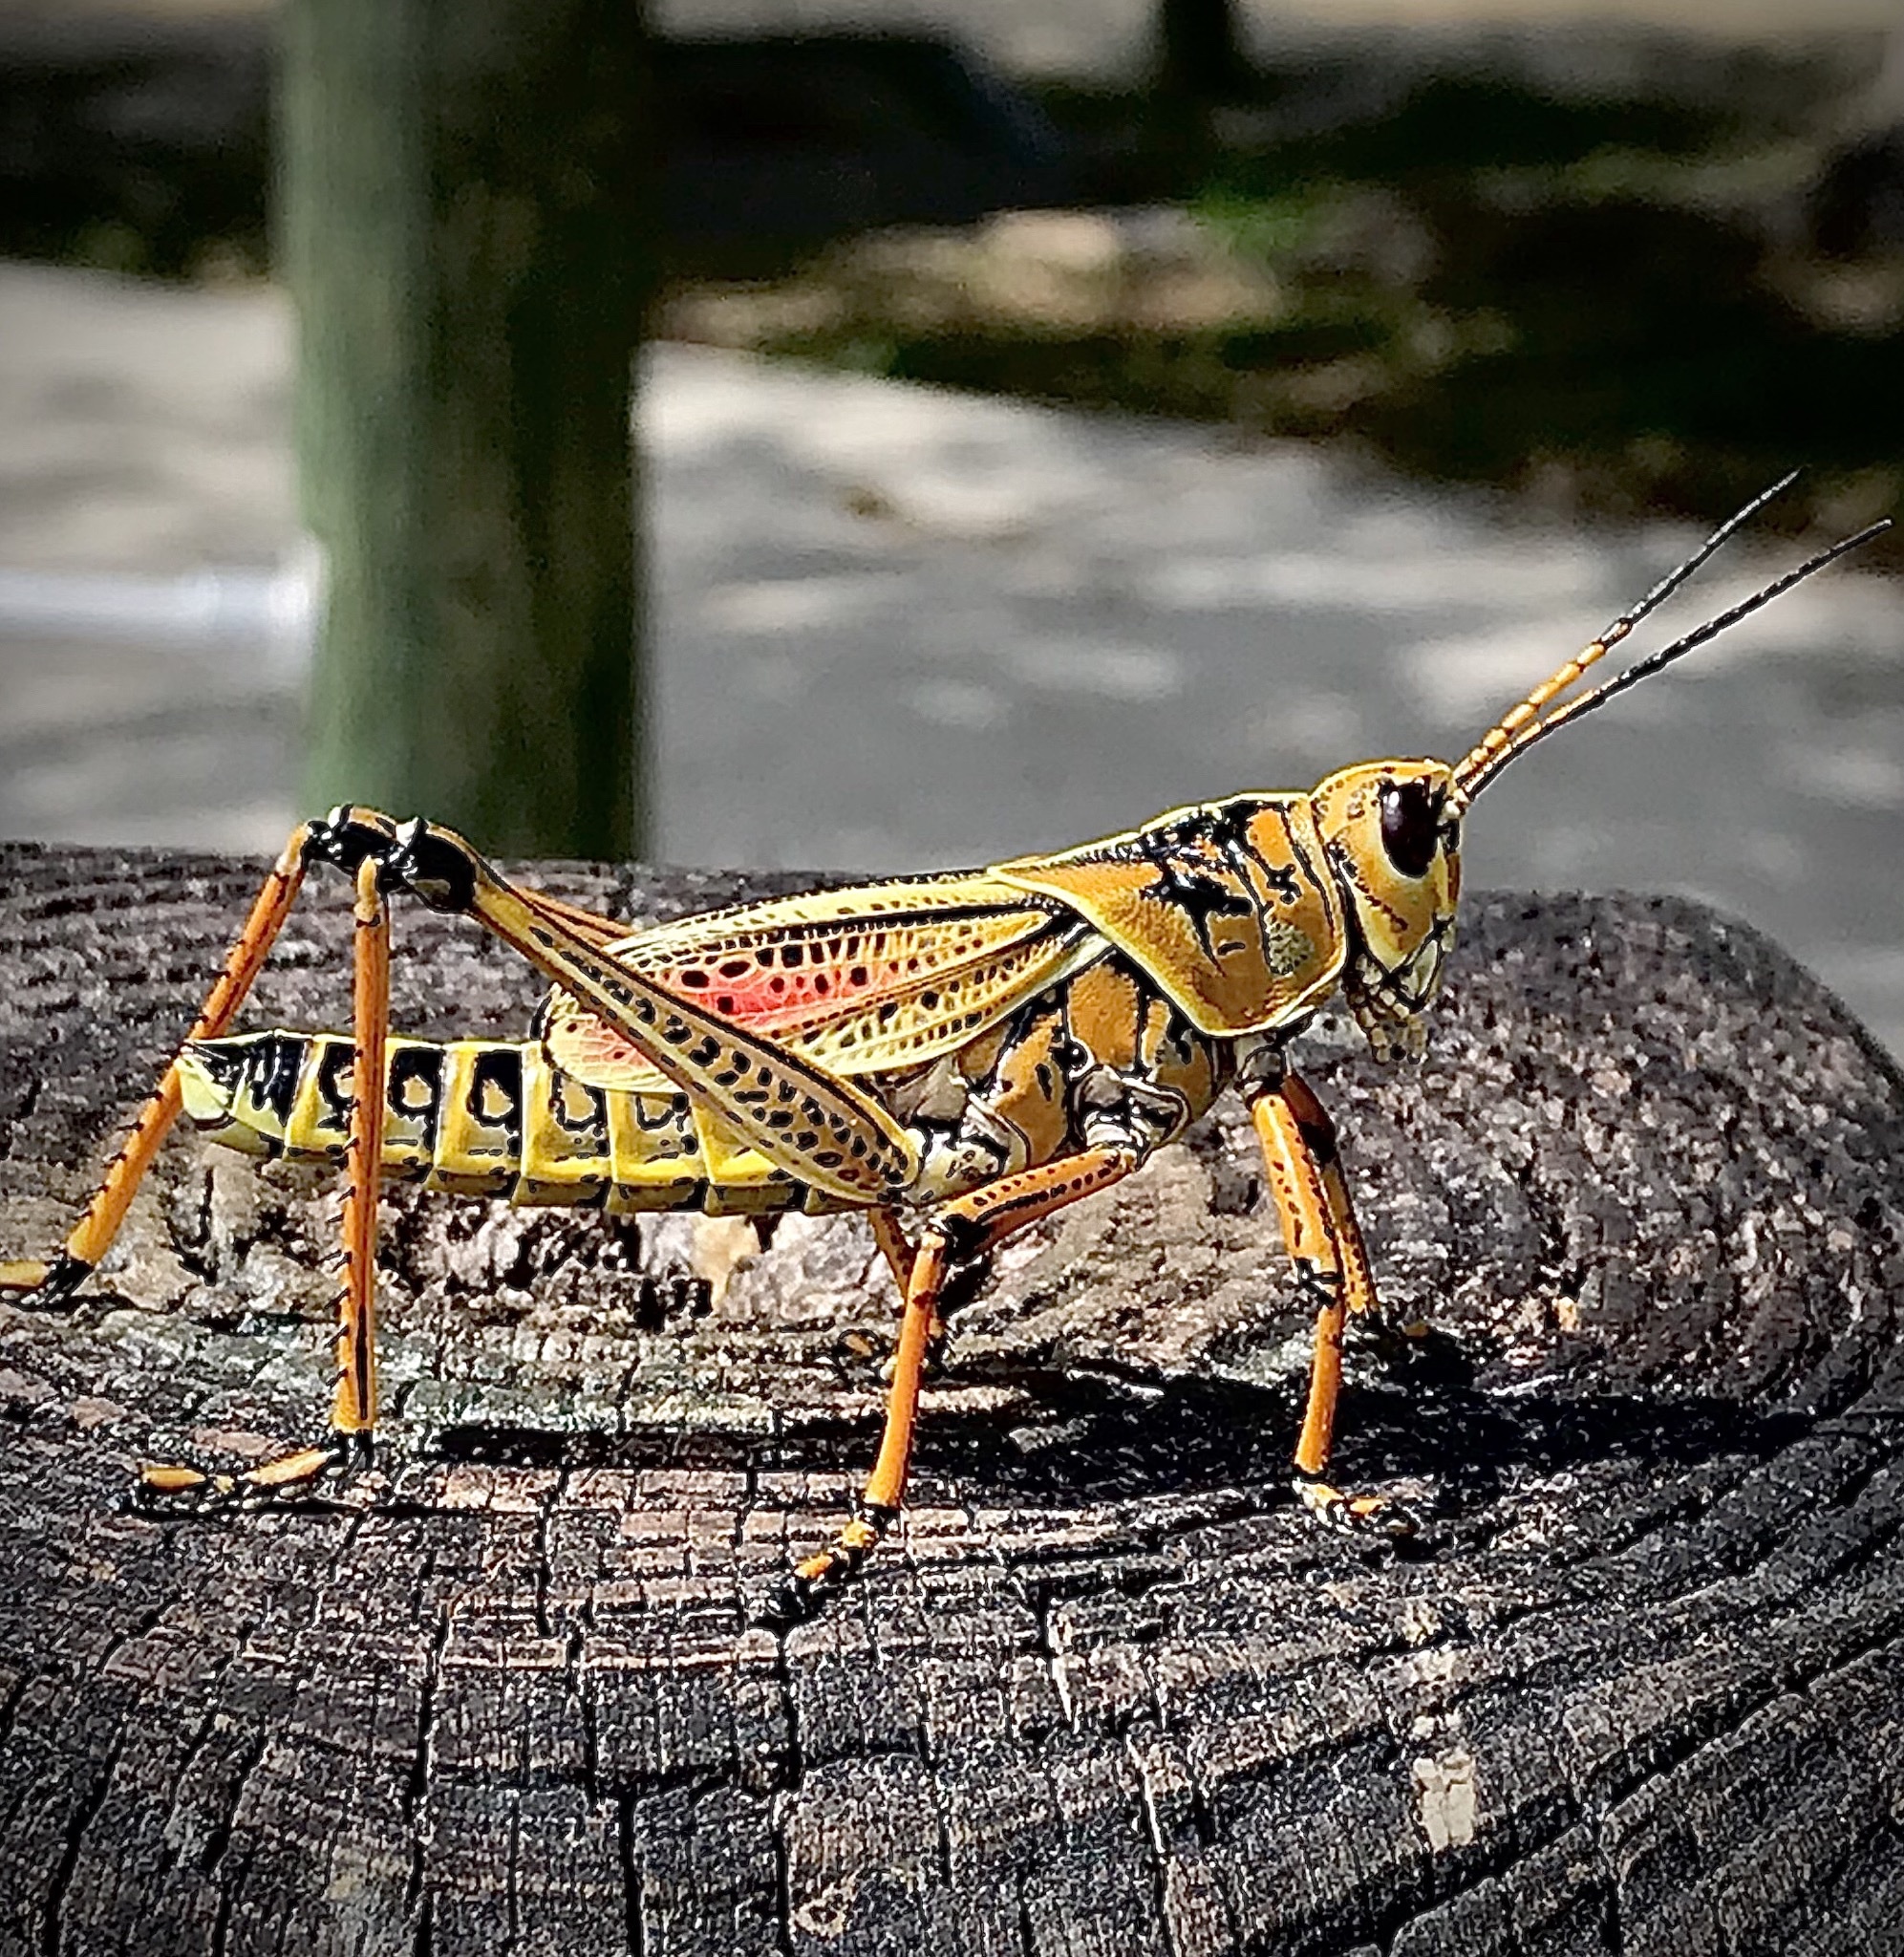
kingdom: Animalia
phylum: Arthropoda
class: Insecta
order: Orthoptera
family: Romaleidae
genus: Romalea
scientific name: Romalea microptera
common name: Eastern lubber grasshopper
